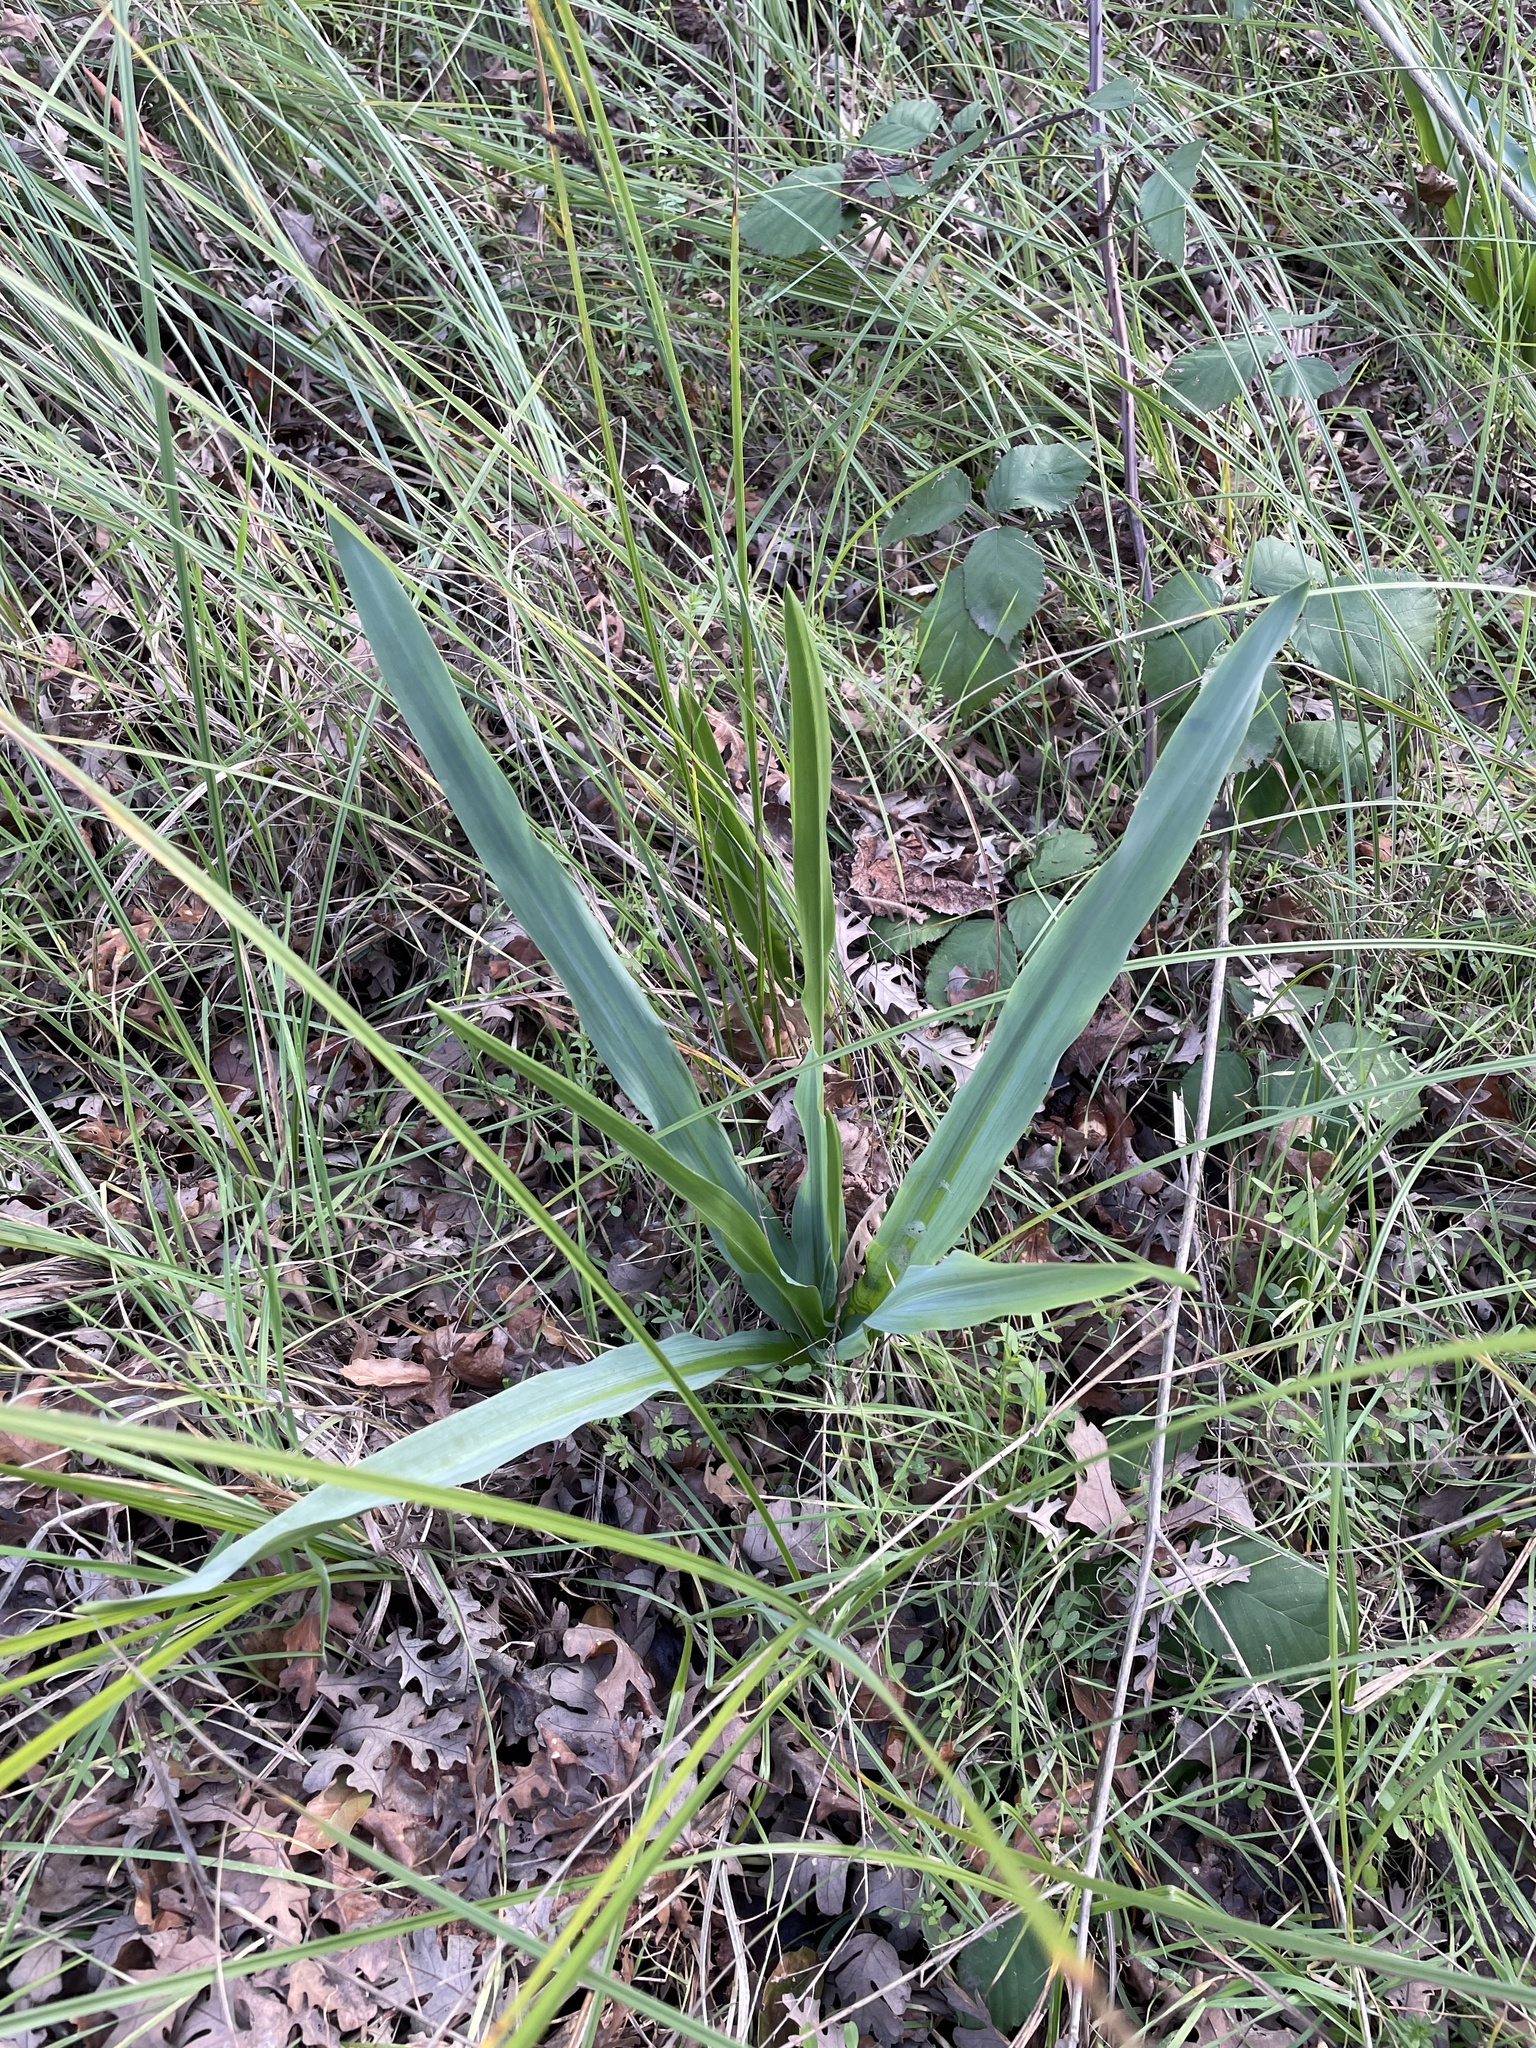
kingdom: Plantae
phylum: Tracheophyta
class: Liliopsida
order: Asparagales
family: Asparagaceae
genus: Chlorogalum
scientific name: Chlorogalum pomeridianum
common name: Amole
